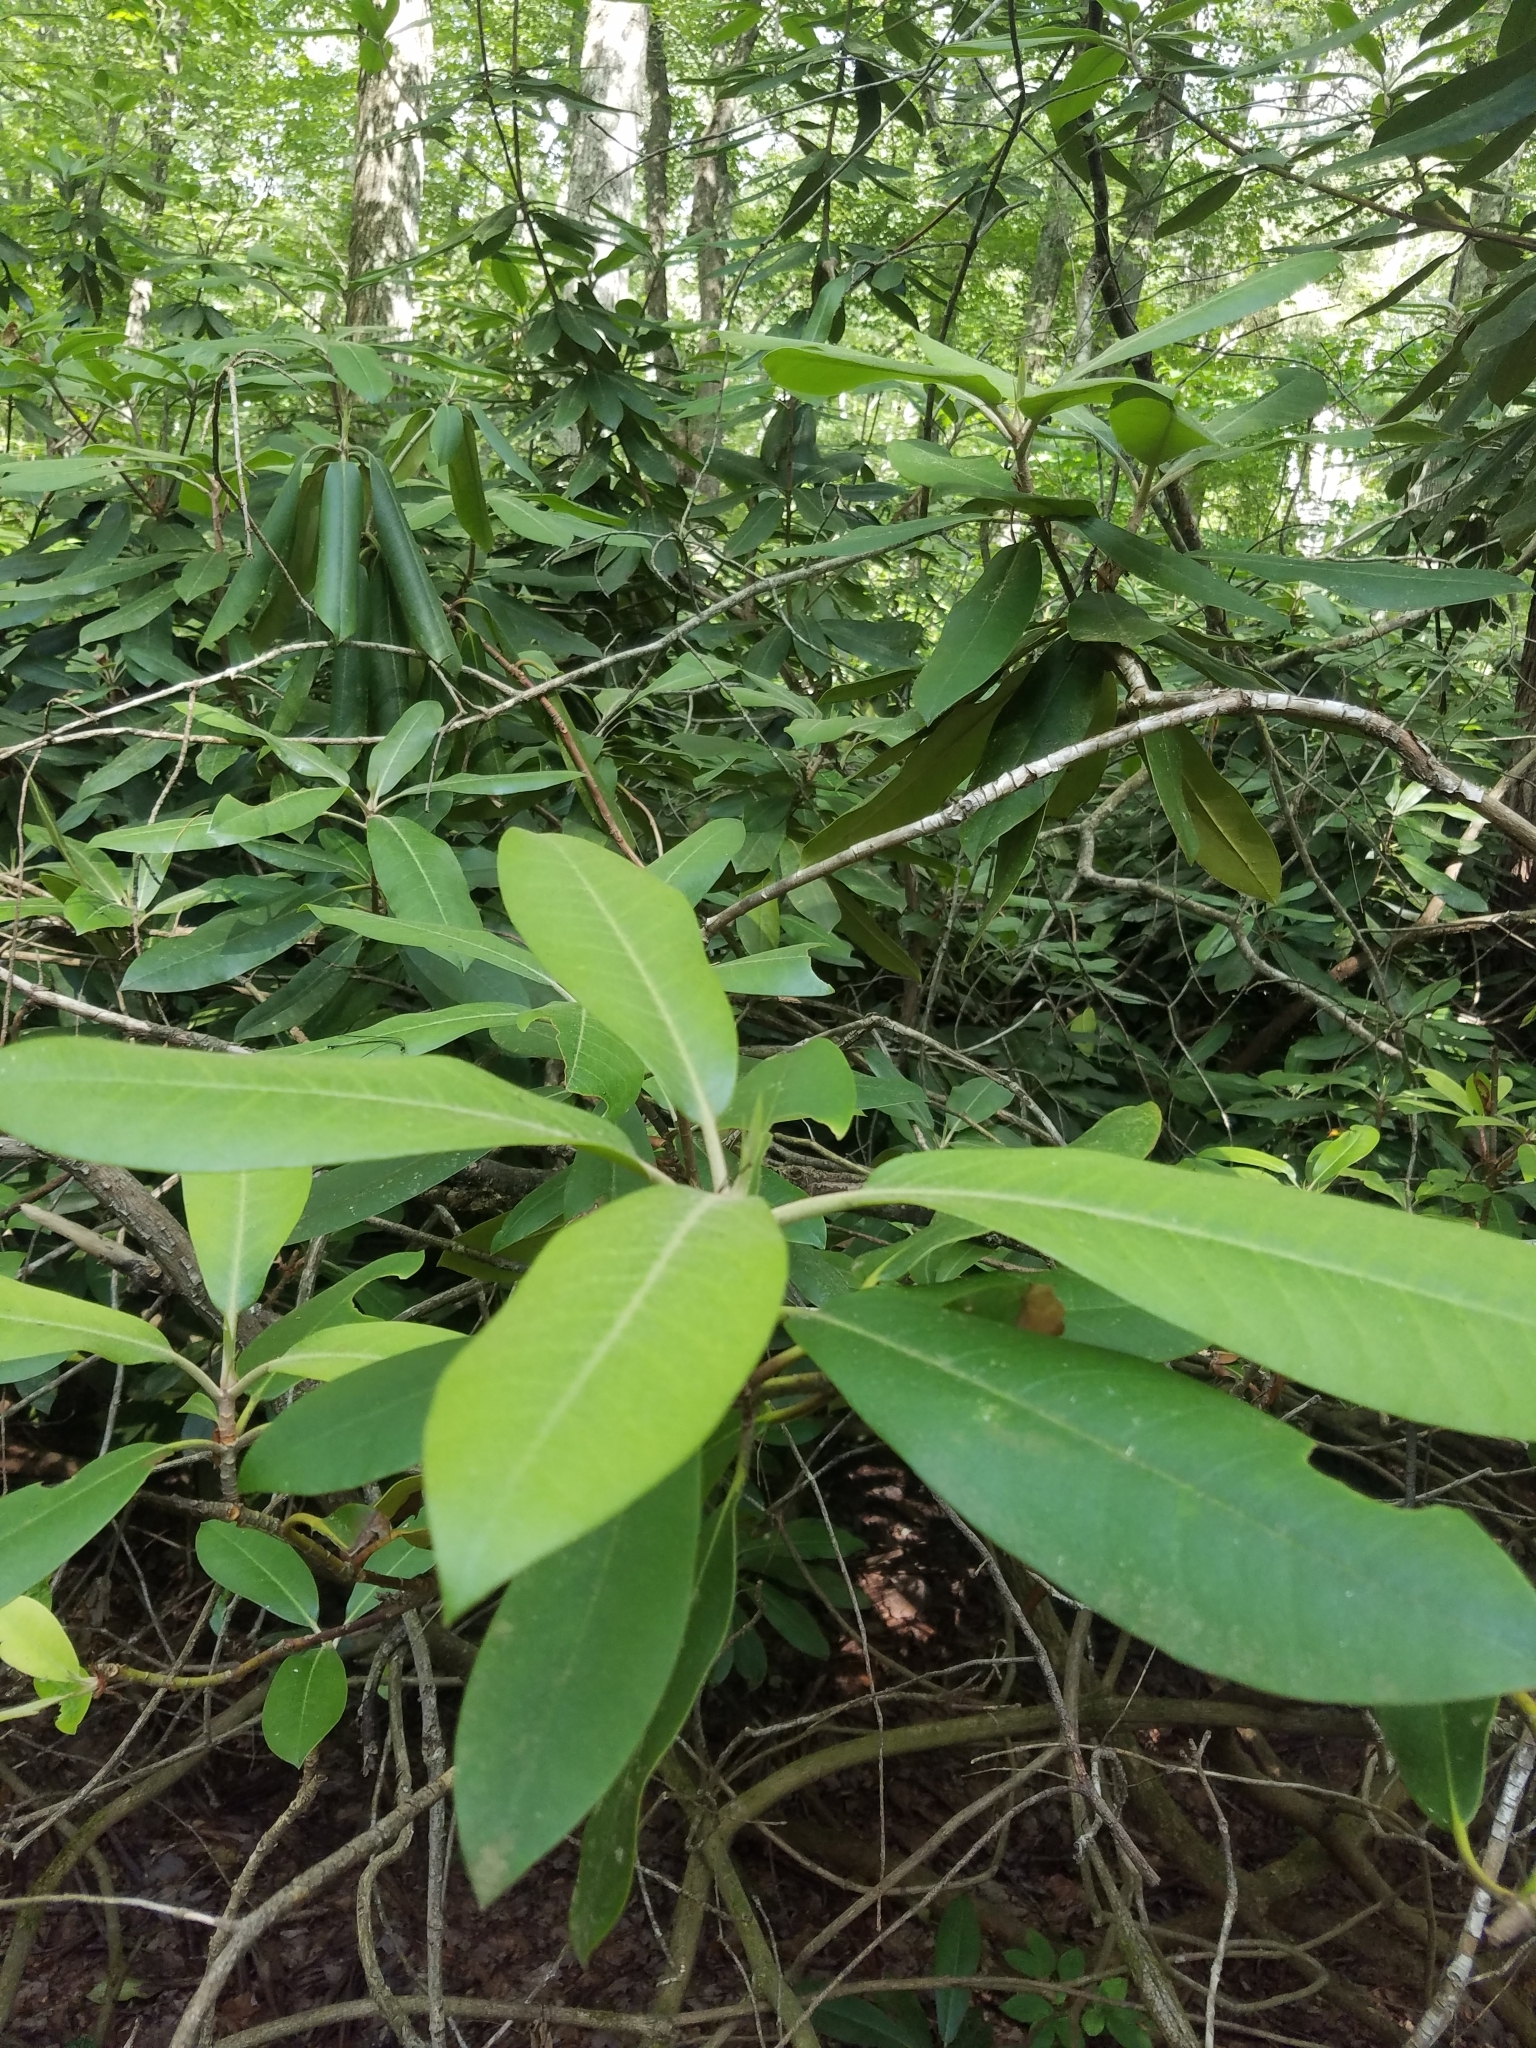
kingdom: Plantae
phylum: Tracheophyta
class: Magnoliopsida
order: Ericales
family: Ericaceae
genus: Rhododendron
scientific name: Rhododendron maximum
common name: Great rhododendron
